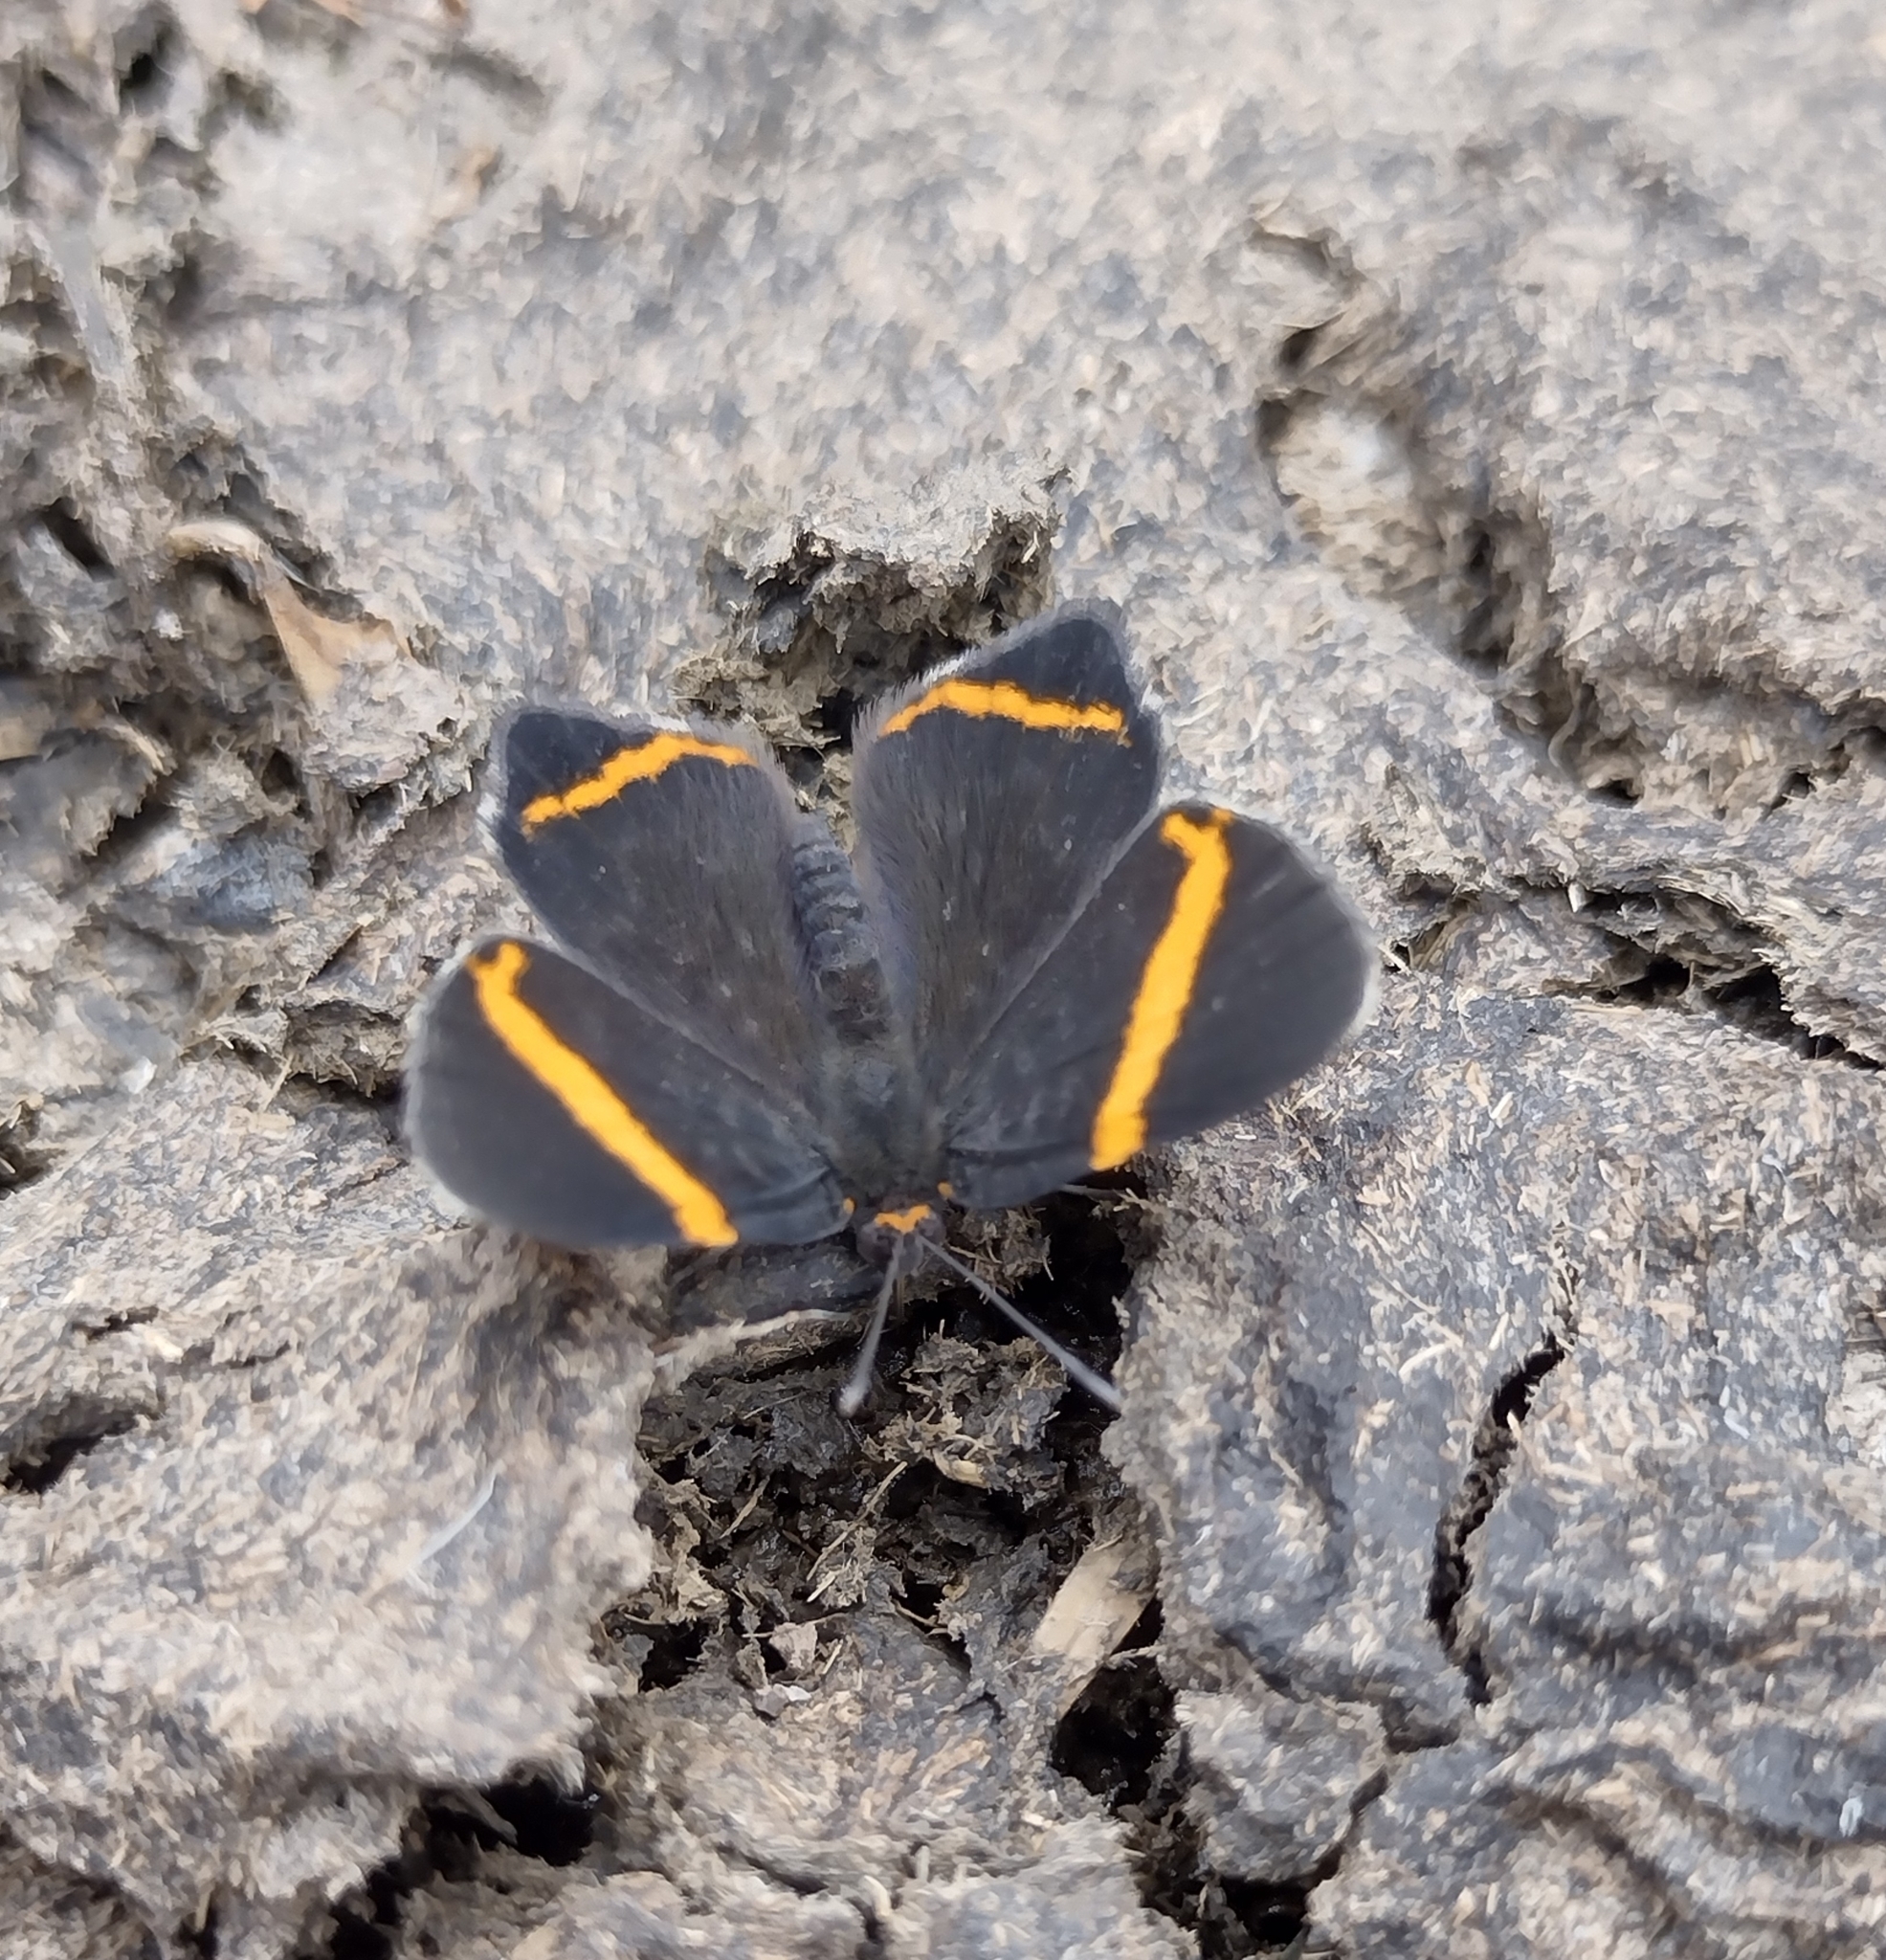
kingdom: Animalia
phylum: Arthropoda
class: Insecta
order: Lepidoptera
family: Riodinidae
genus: Riodina
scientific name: Riodina lysippoides
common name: Little dancer metalmark
